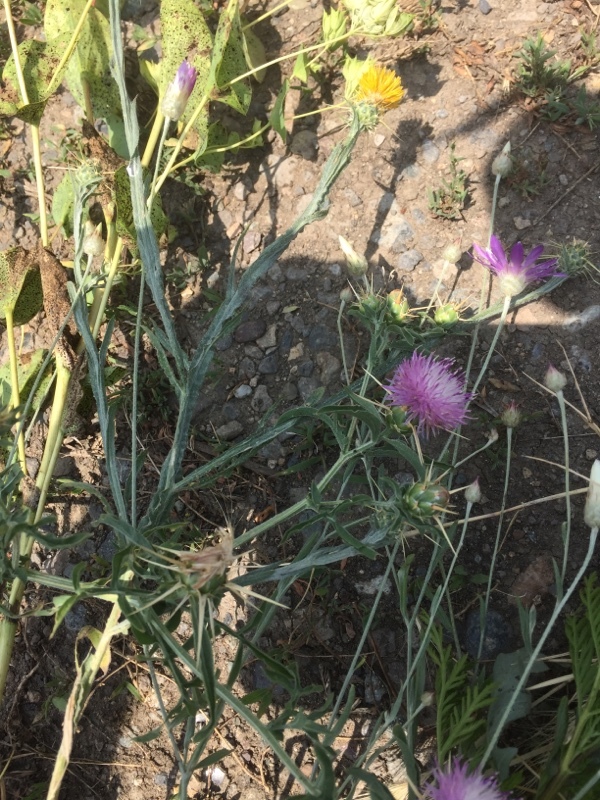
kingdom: Plantae
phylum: Tracheophyta
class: Magnoliopsida
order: Asterales
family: Asteraceae
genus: Centaurea
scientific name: Centaurea iberica
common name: Iberian knapweed
